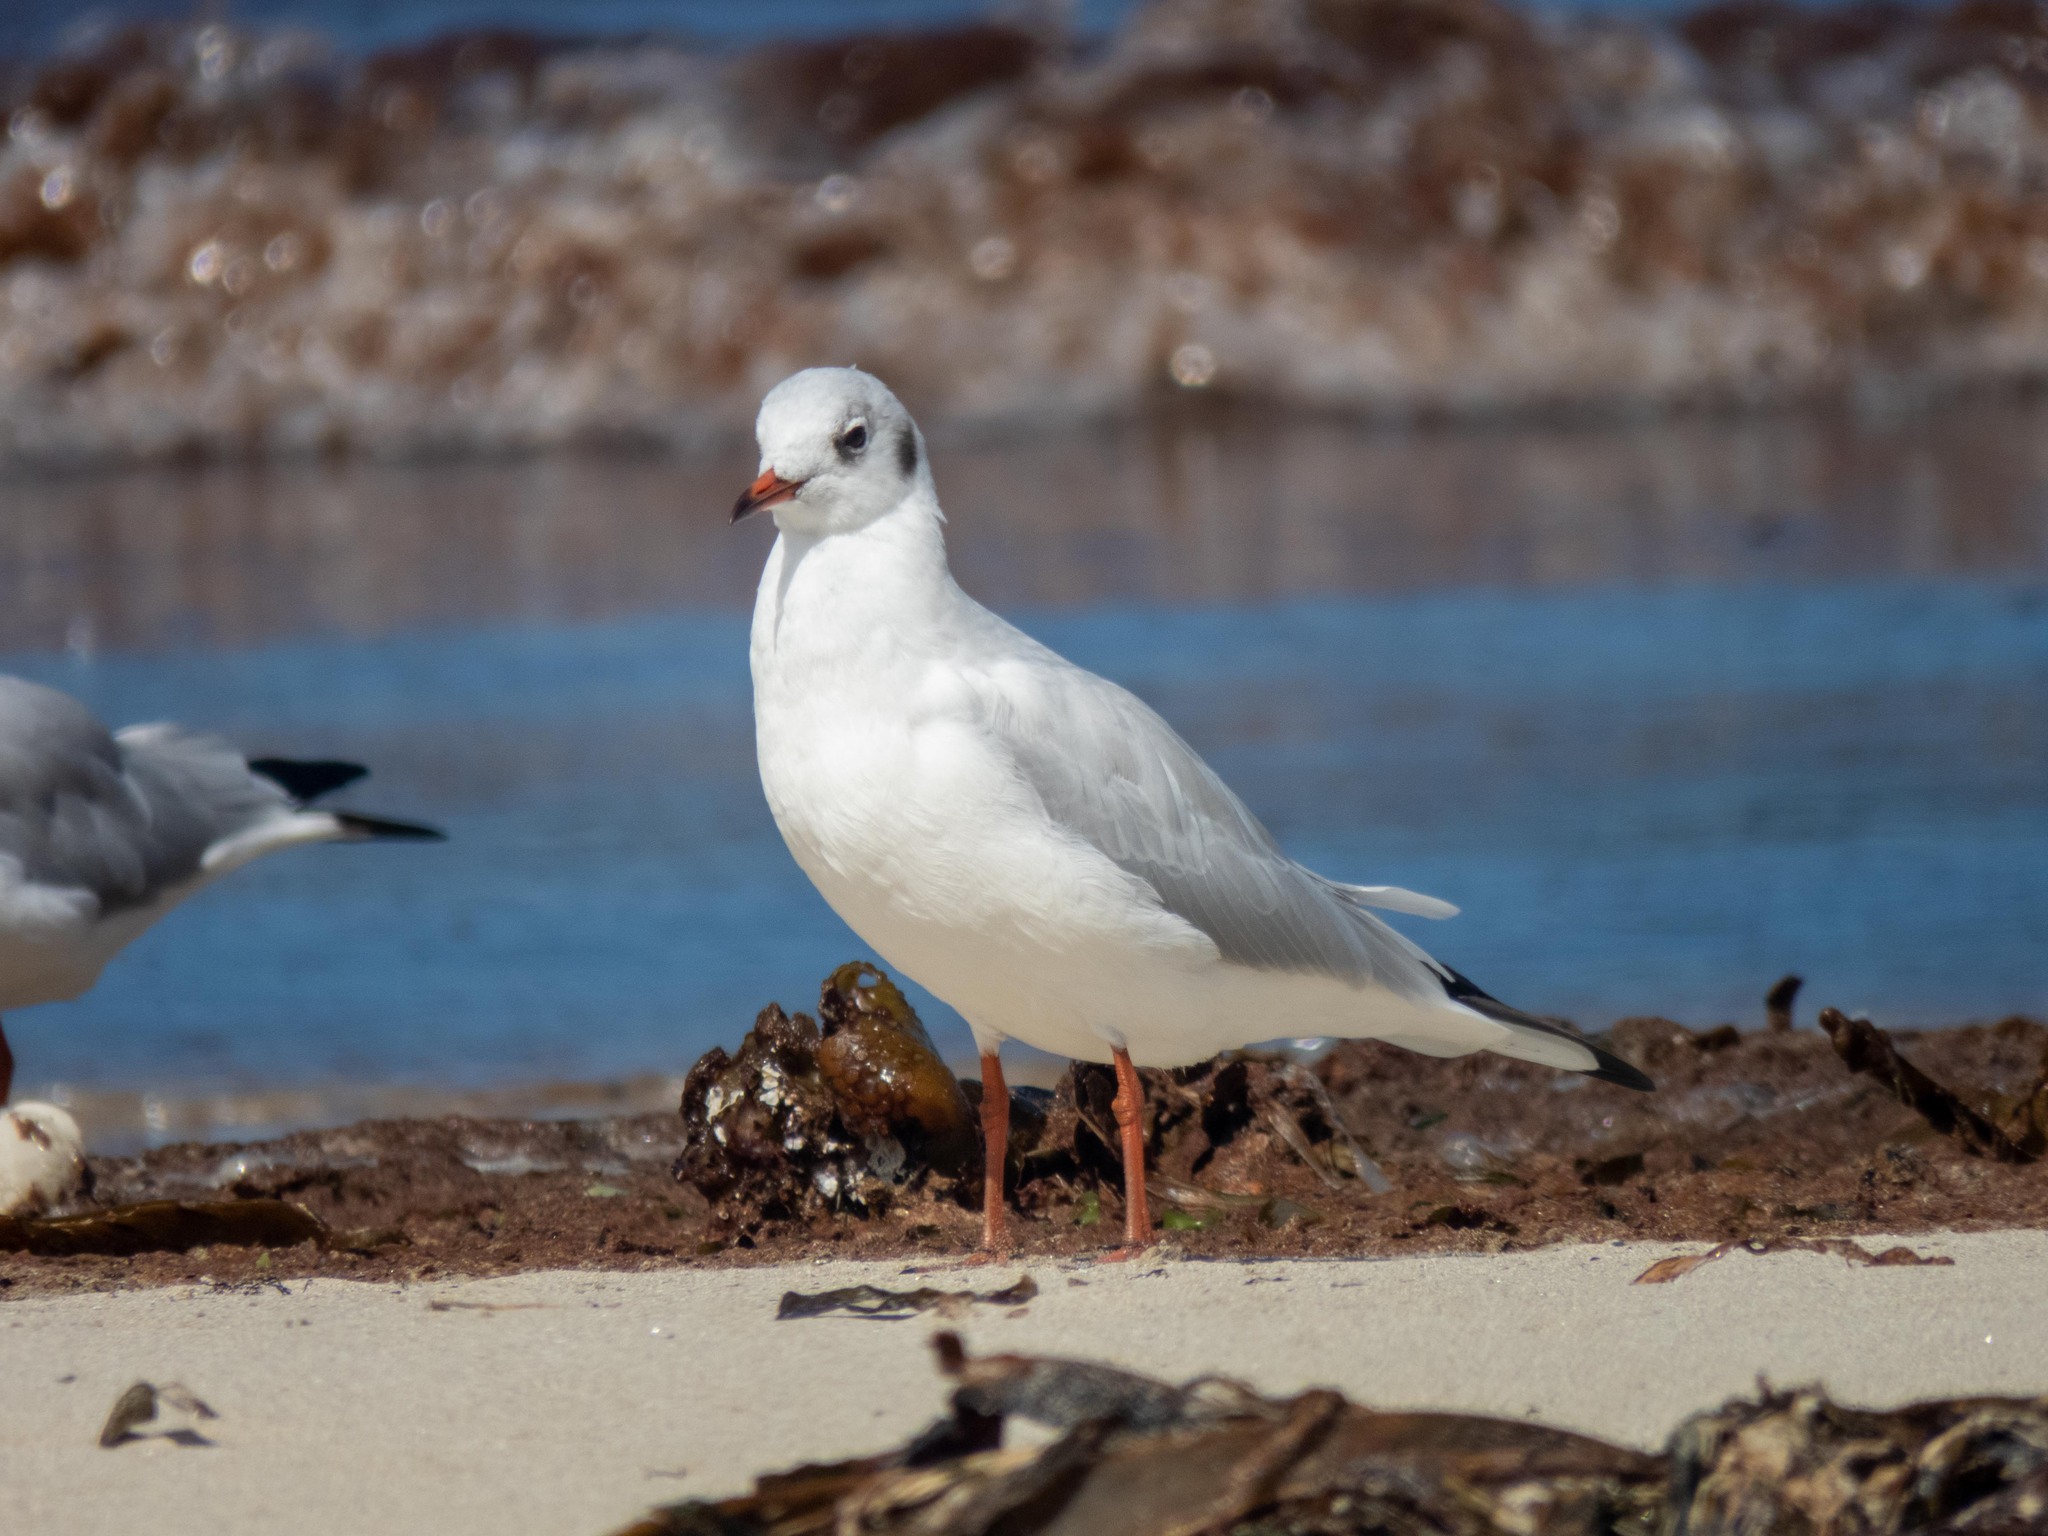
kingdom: Animalia
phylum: Chordata
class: Aves
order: Charadriiformes
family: Laridae
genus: Chroicocephalus
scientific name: Chroicocephalus ridibundus
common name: Black-headed gull
